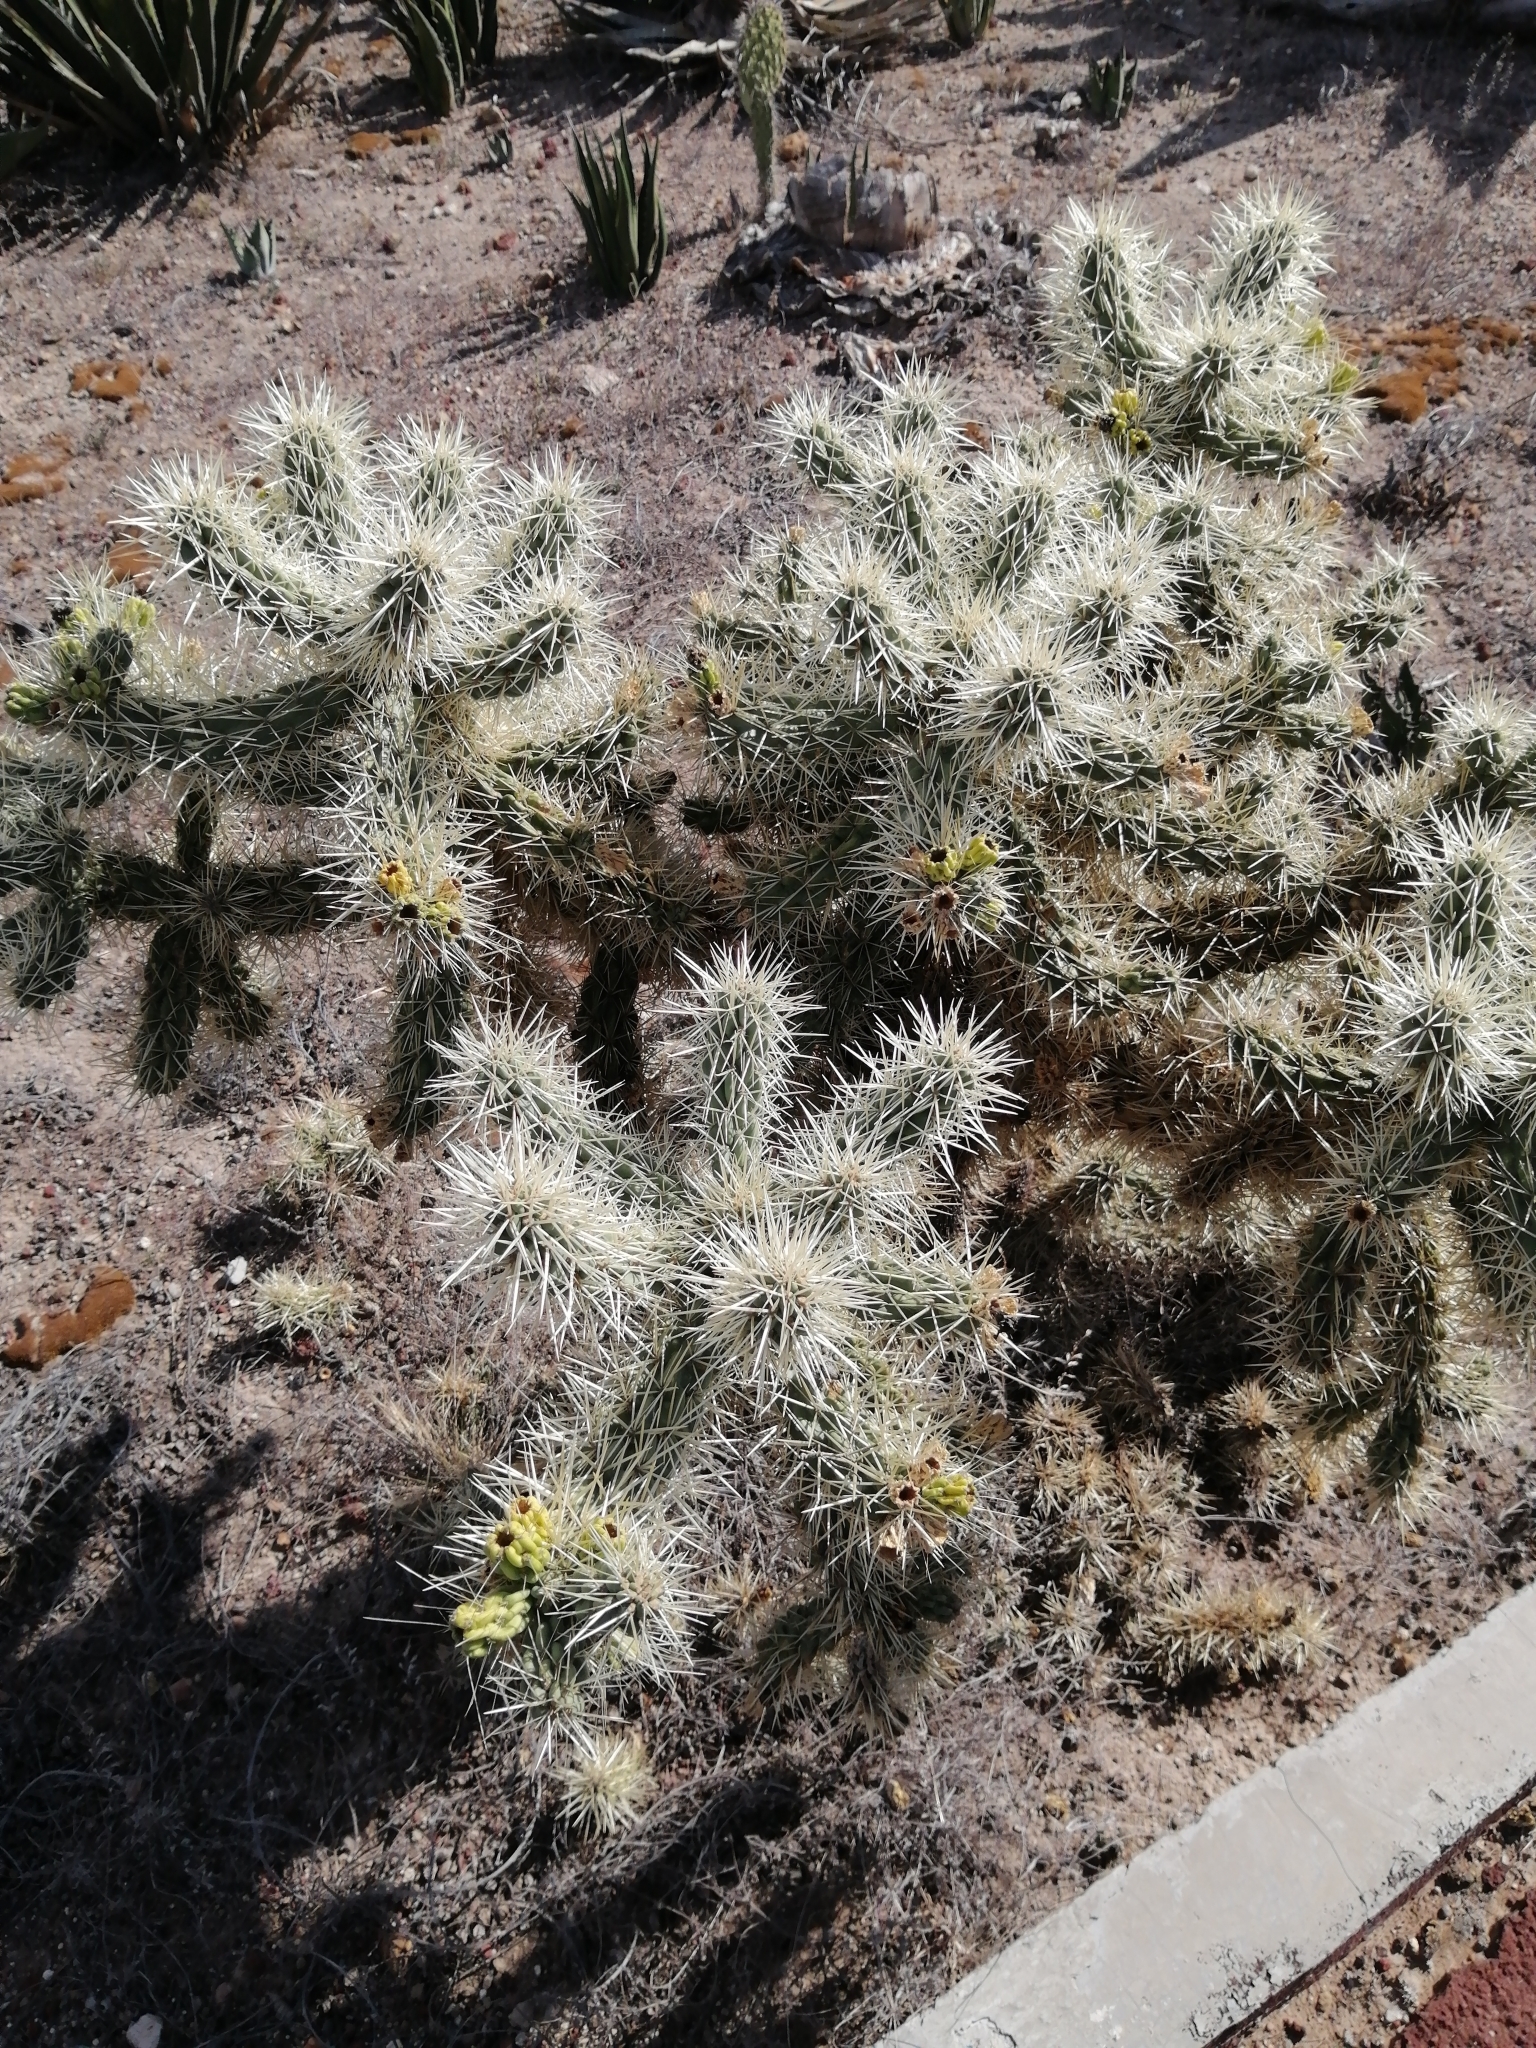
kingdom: Plantae
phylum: Tracheophyta
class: Magnoliopsida
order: Caryophyllales
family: Cactaceae
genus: Cylindropuntia
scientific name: Cylindropuntia tunicata
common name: Sheathed cholla
